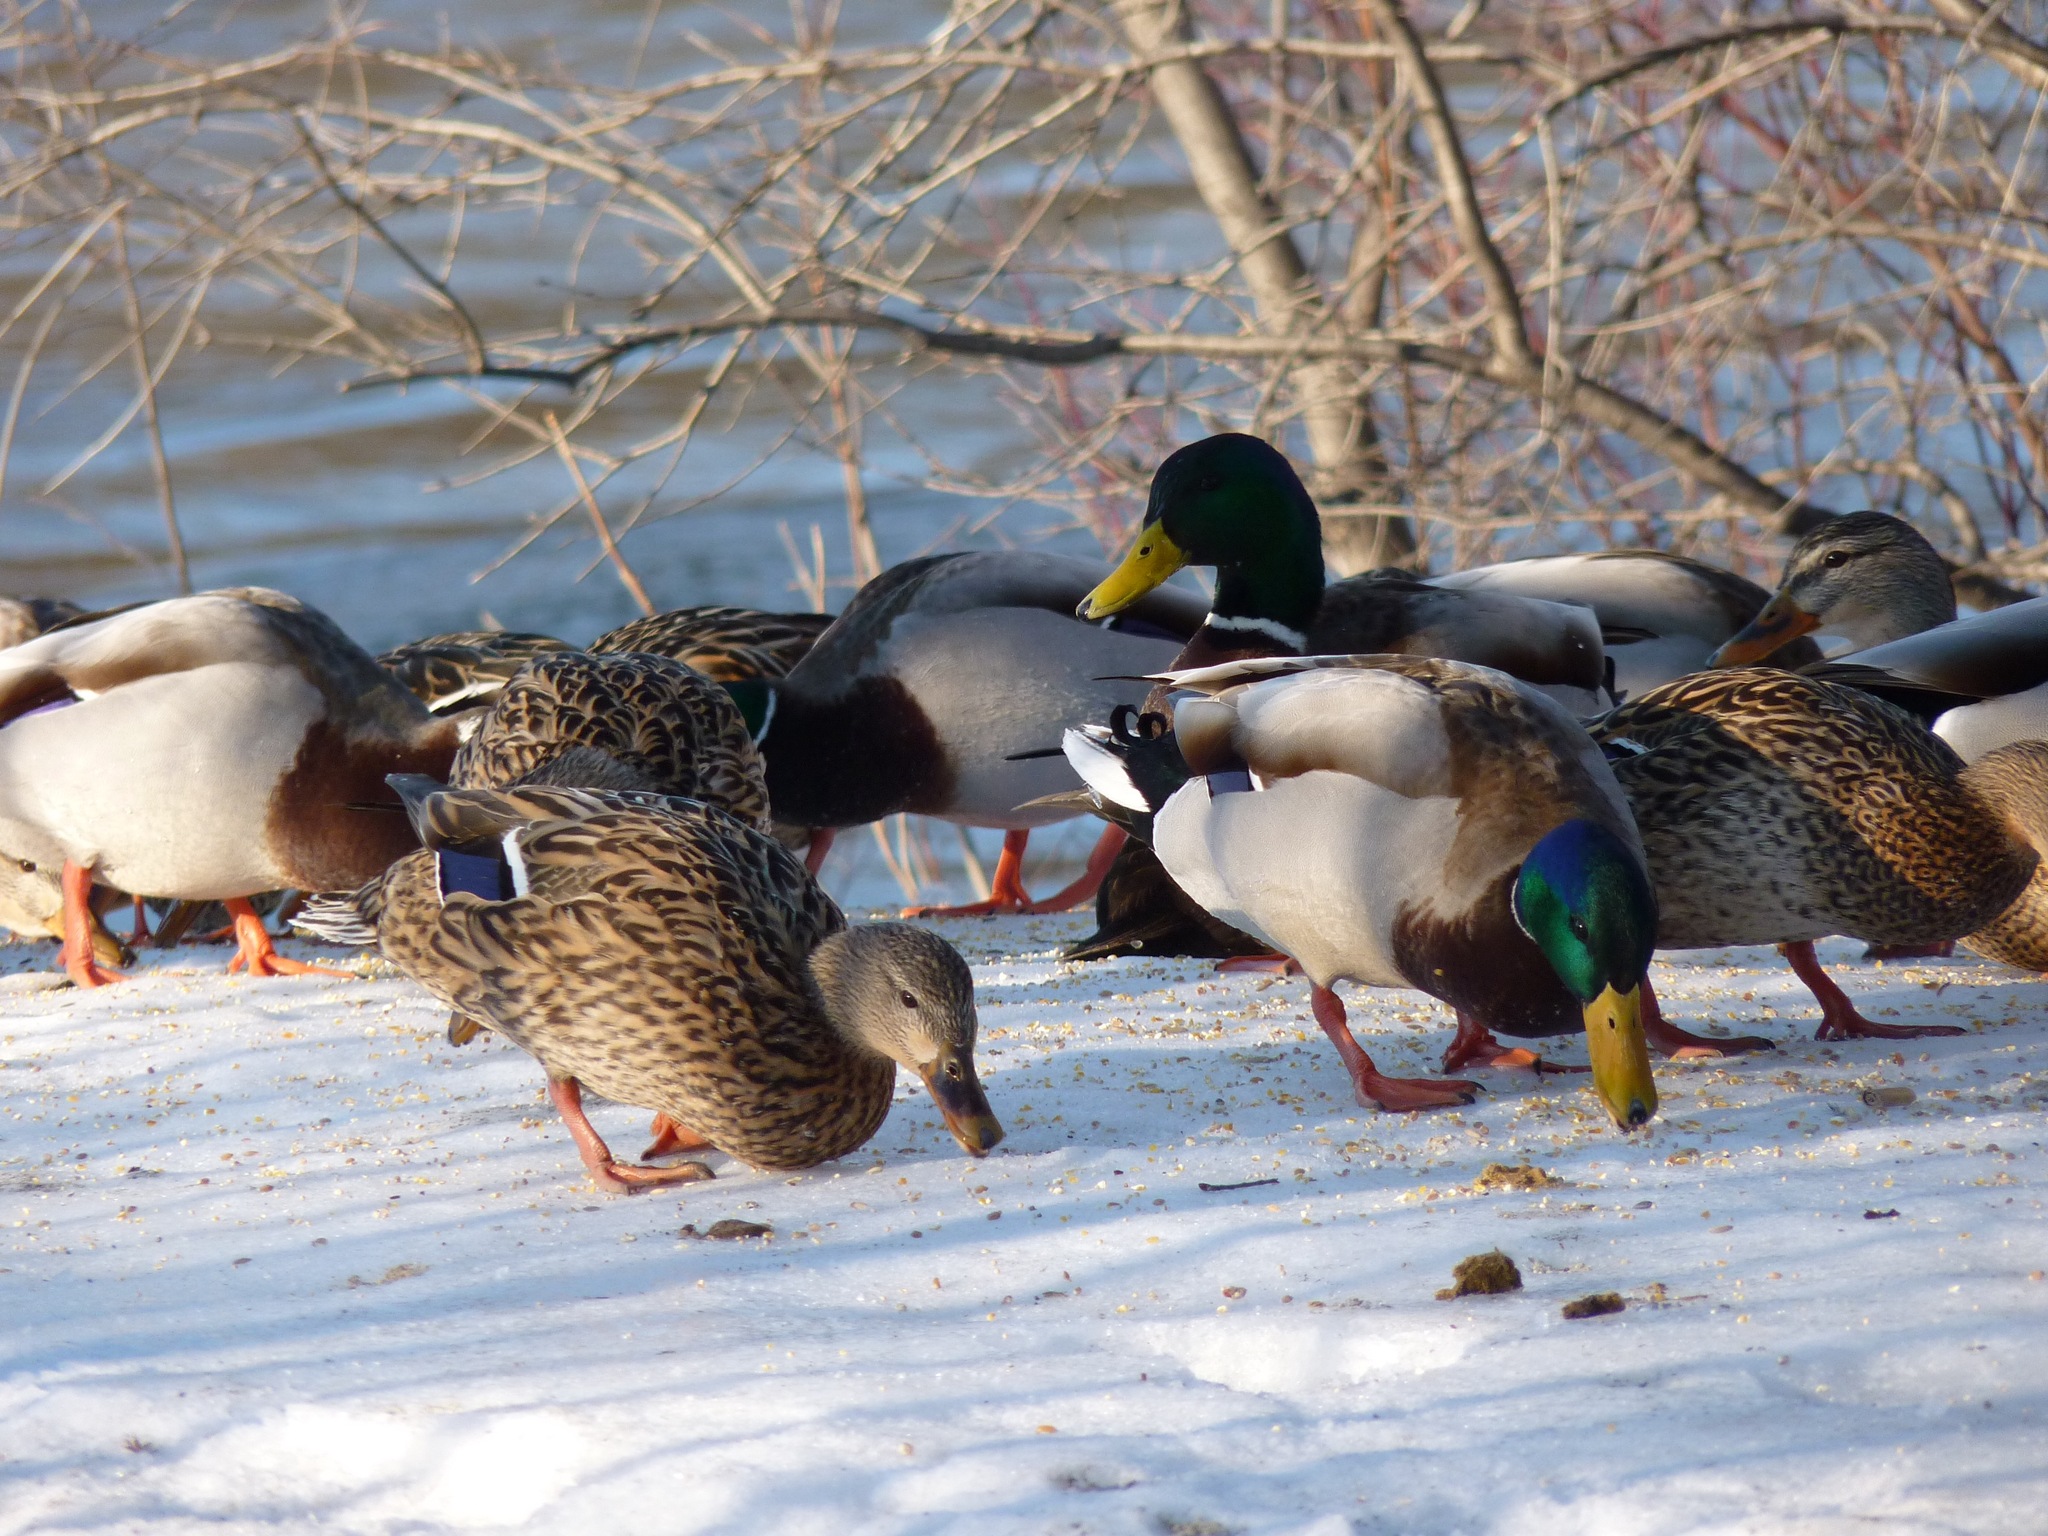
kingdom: Animalia
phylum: Chordata
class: Aves
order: Anseriformes
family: Anatidae
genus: Anas
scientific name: Anas platyrhynchos
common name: Mallard
